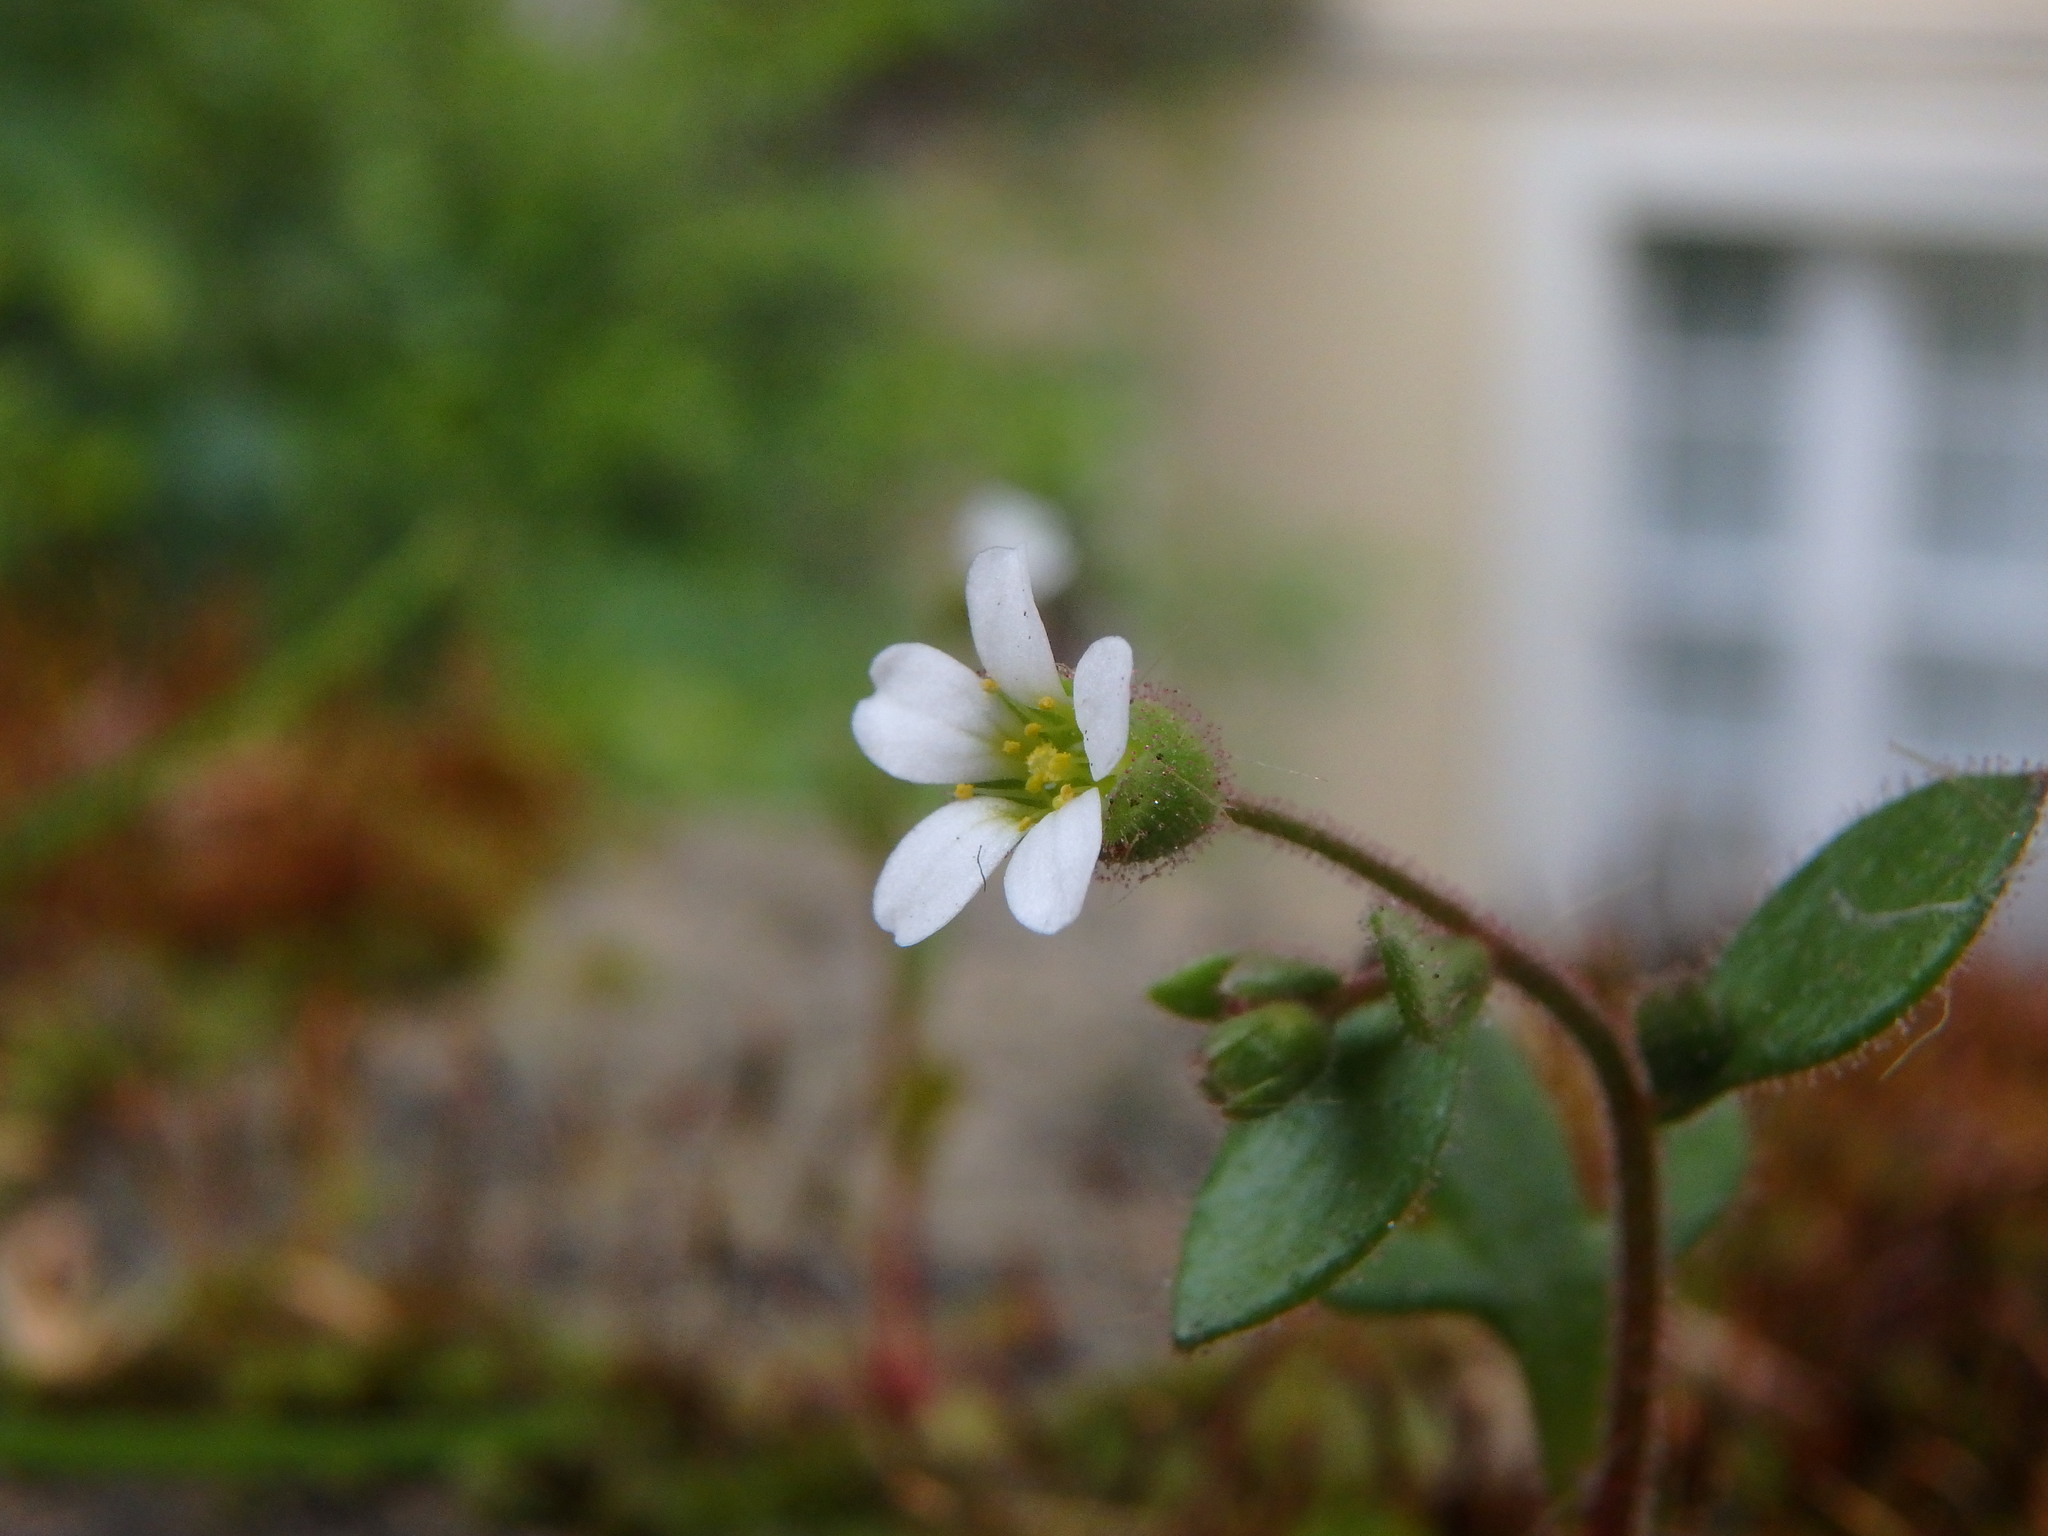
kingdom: Plantae
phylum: Tracheophyta
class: Magnoliopsida
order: Saxifragales
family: Saxifragaceae
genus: Saxifraga
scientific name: Saxifraga tridactylites
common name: Rue-leaved saxifrage
